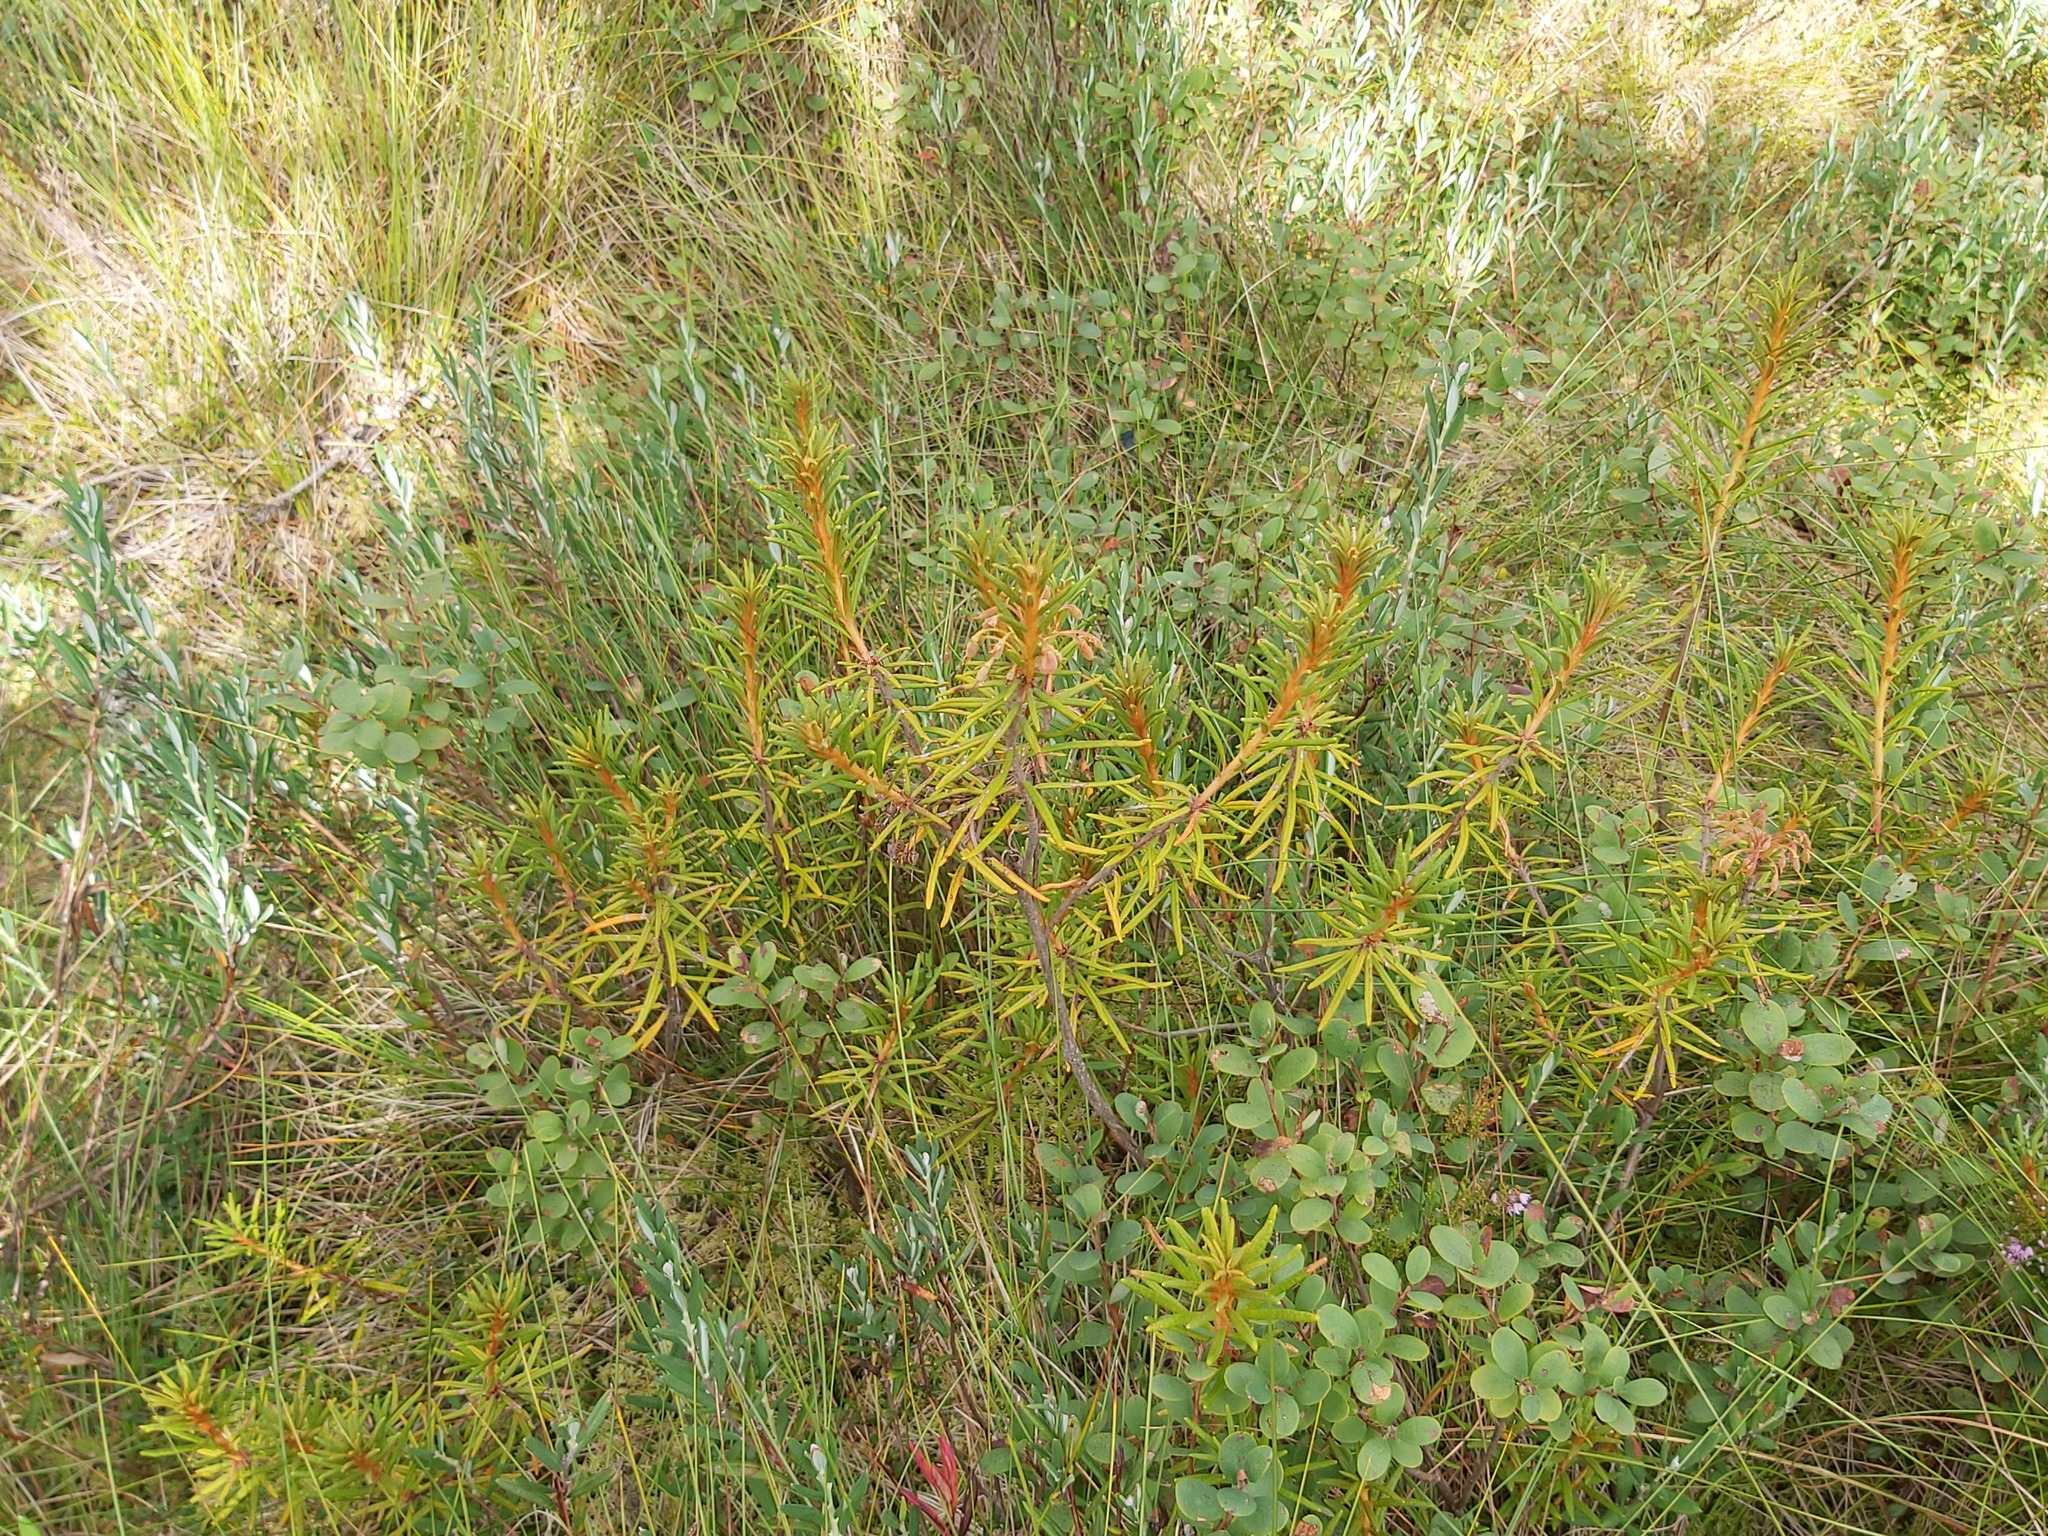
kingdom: Plantae
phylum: Tracheophyta
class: Magnoliopsida
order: Ericales
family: Ericaceae
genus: Rhododendron
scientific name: Rhododendron tomentosum
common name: Marsh labrador tea
